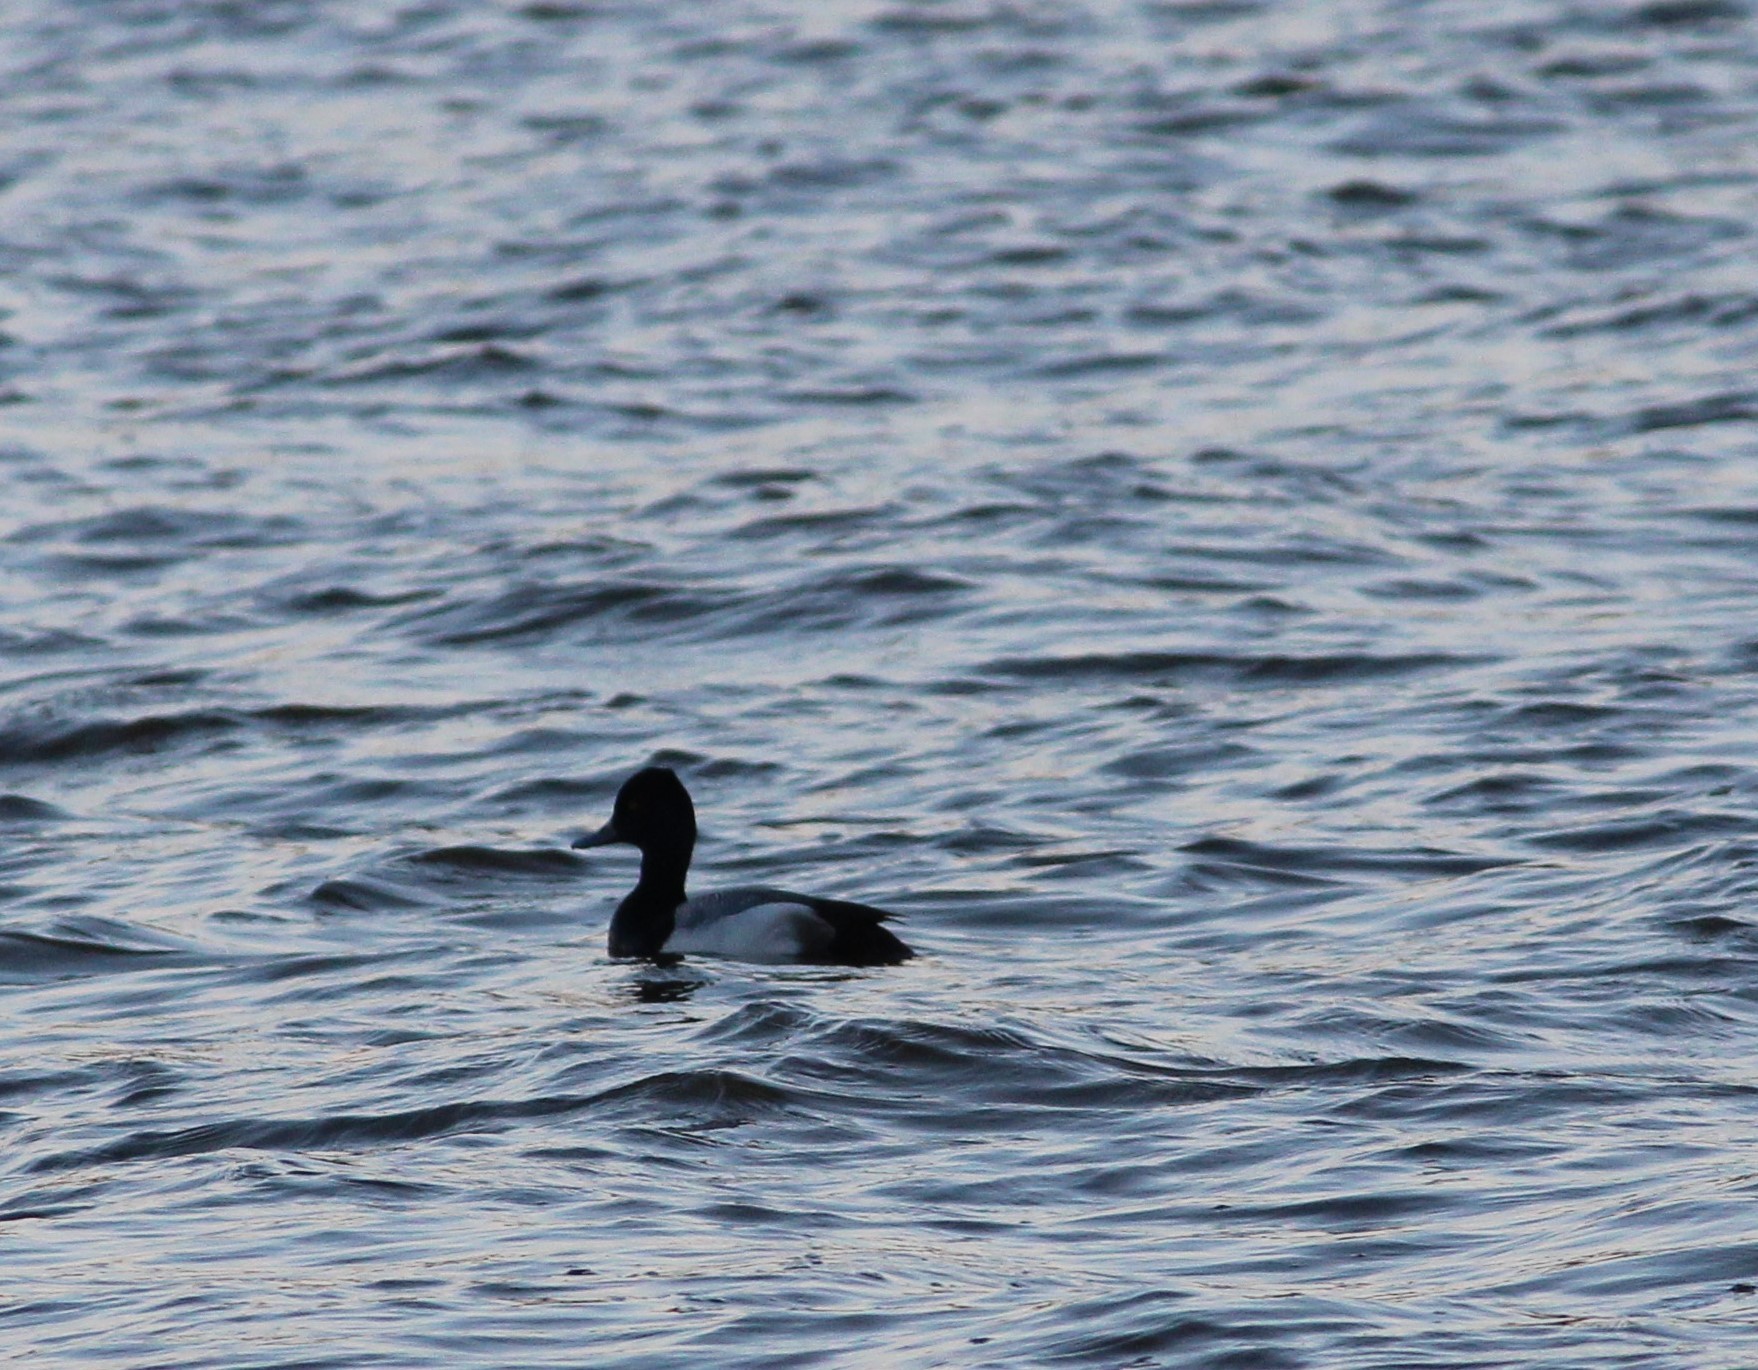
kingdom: Animalia
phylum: Chordata
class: Aves
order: Anseriformes
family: Anatidae
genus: Aythya
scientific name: Aythya affinis
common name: Lesser scaup
